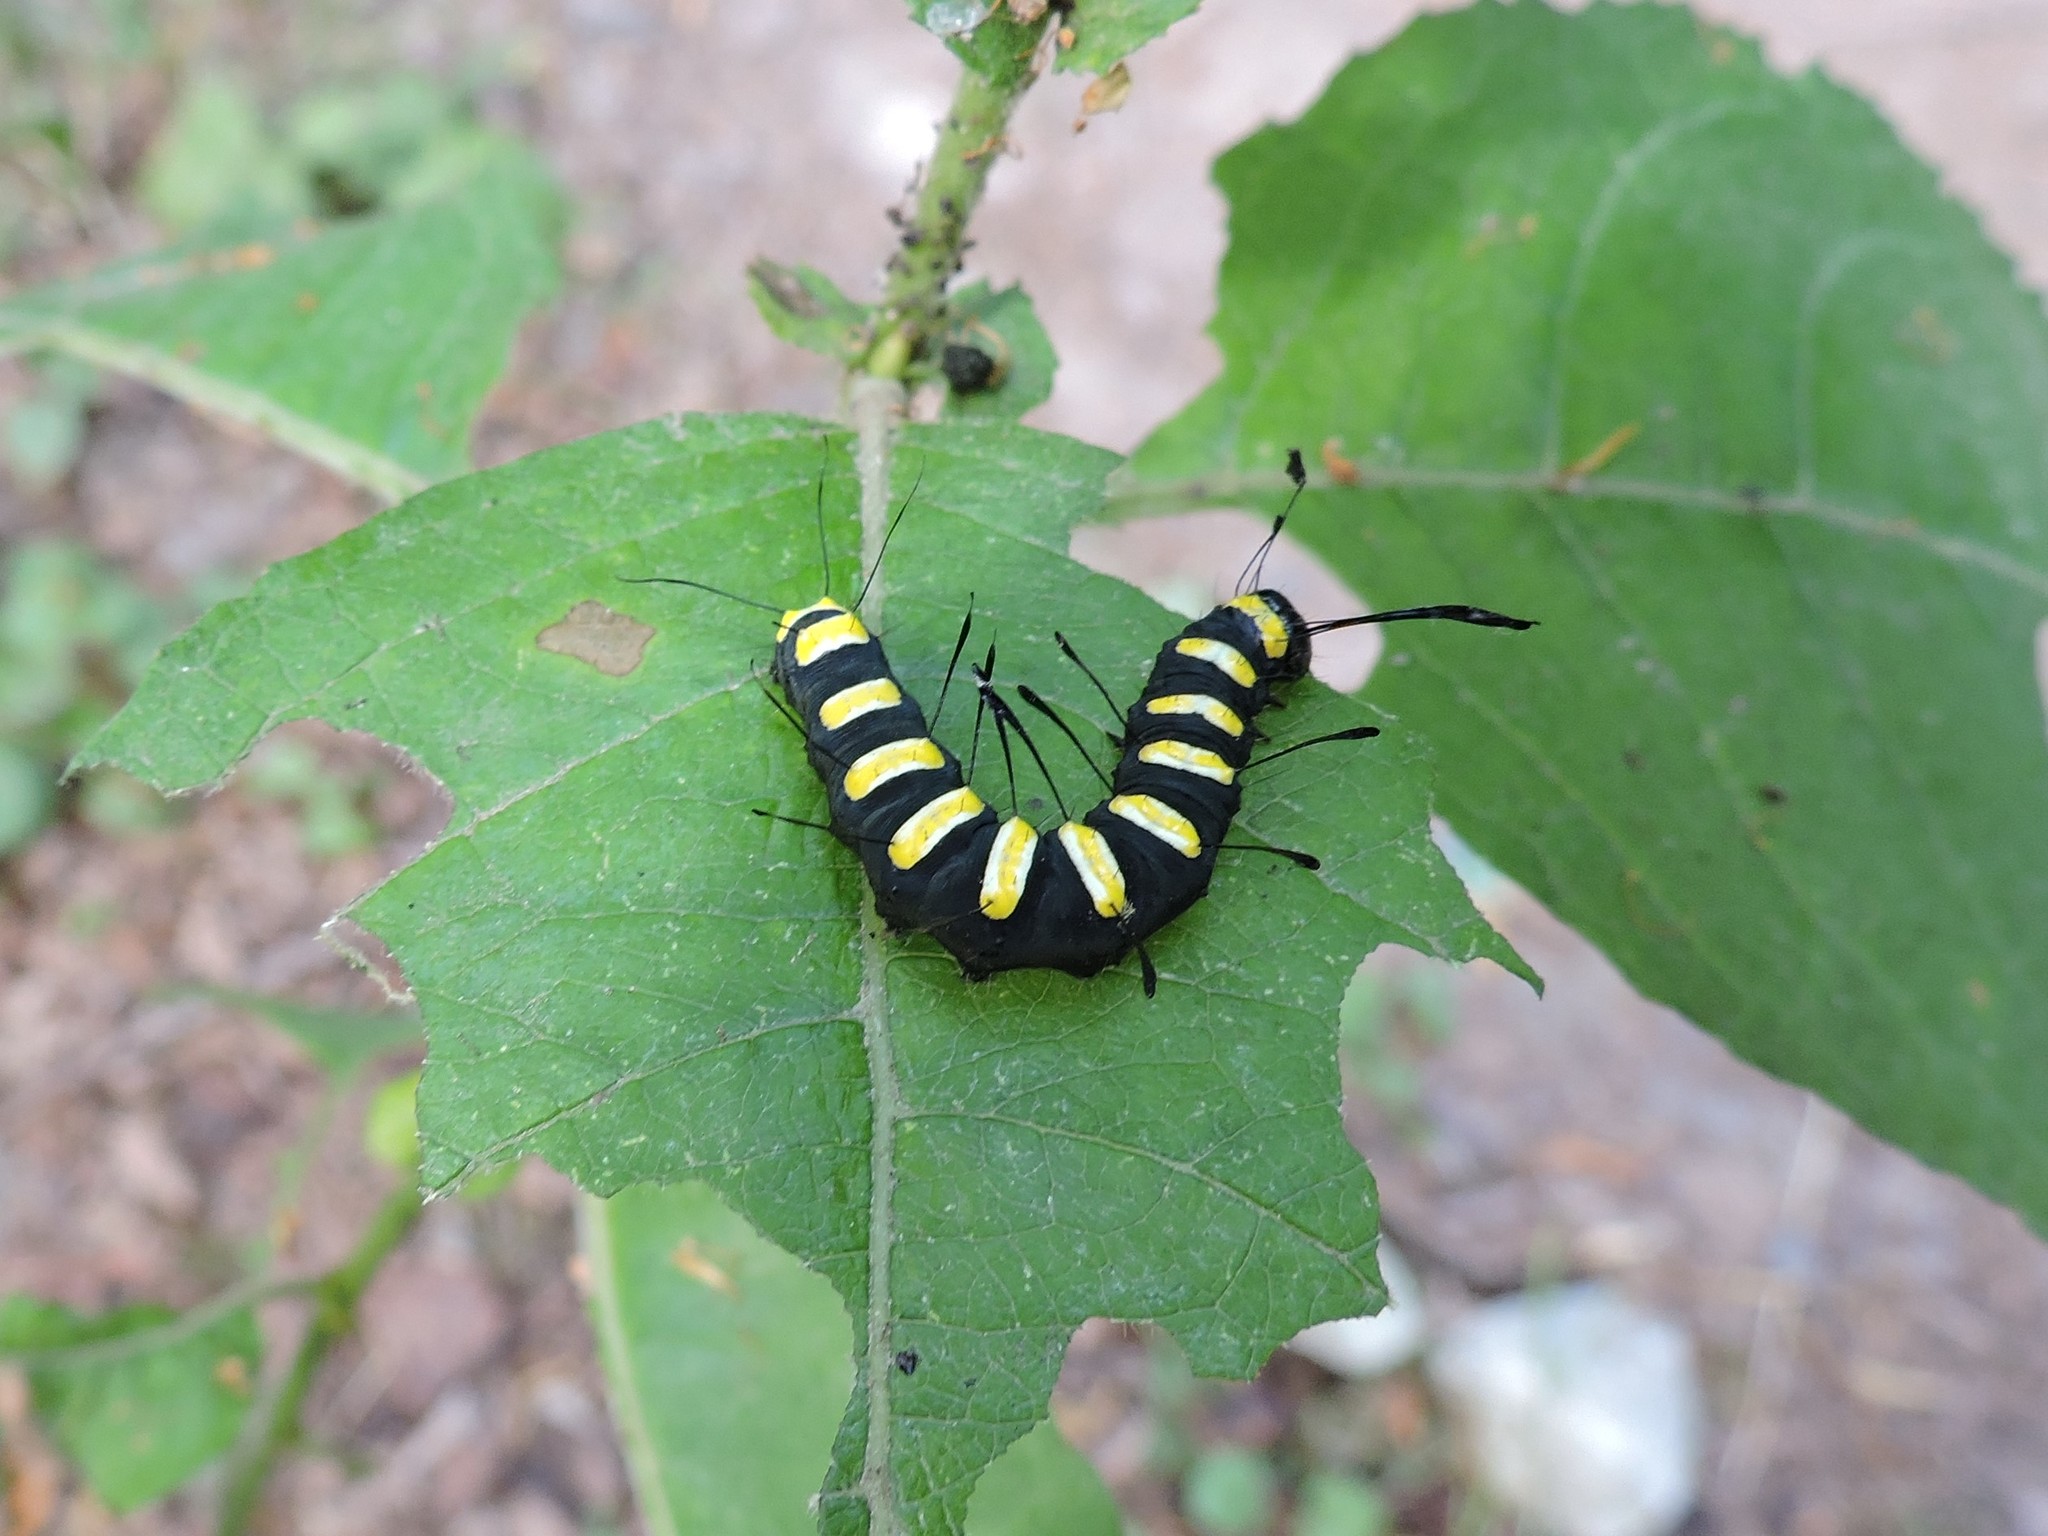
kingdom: Animalia
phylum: Arthropoda
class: Insecta
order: Lepidoptera
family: Noctuidae
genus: Acronicta
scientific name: Acronicta alni
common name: Alder moth
